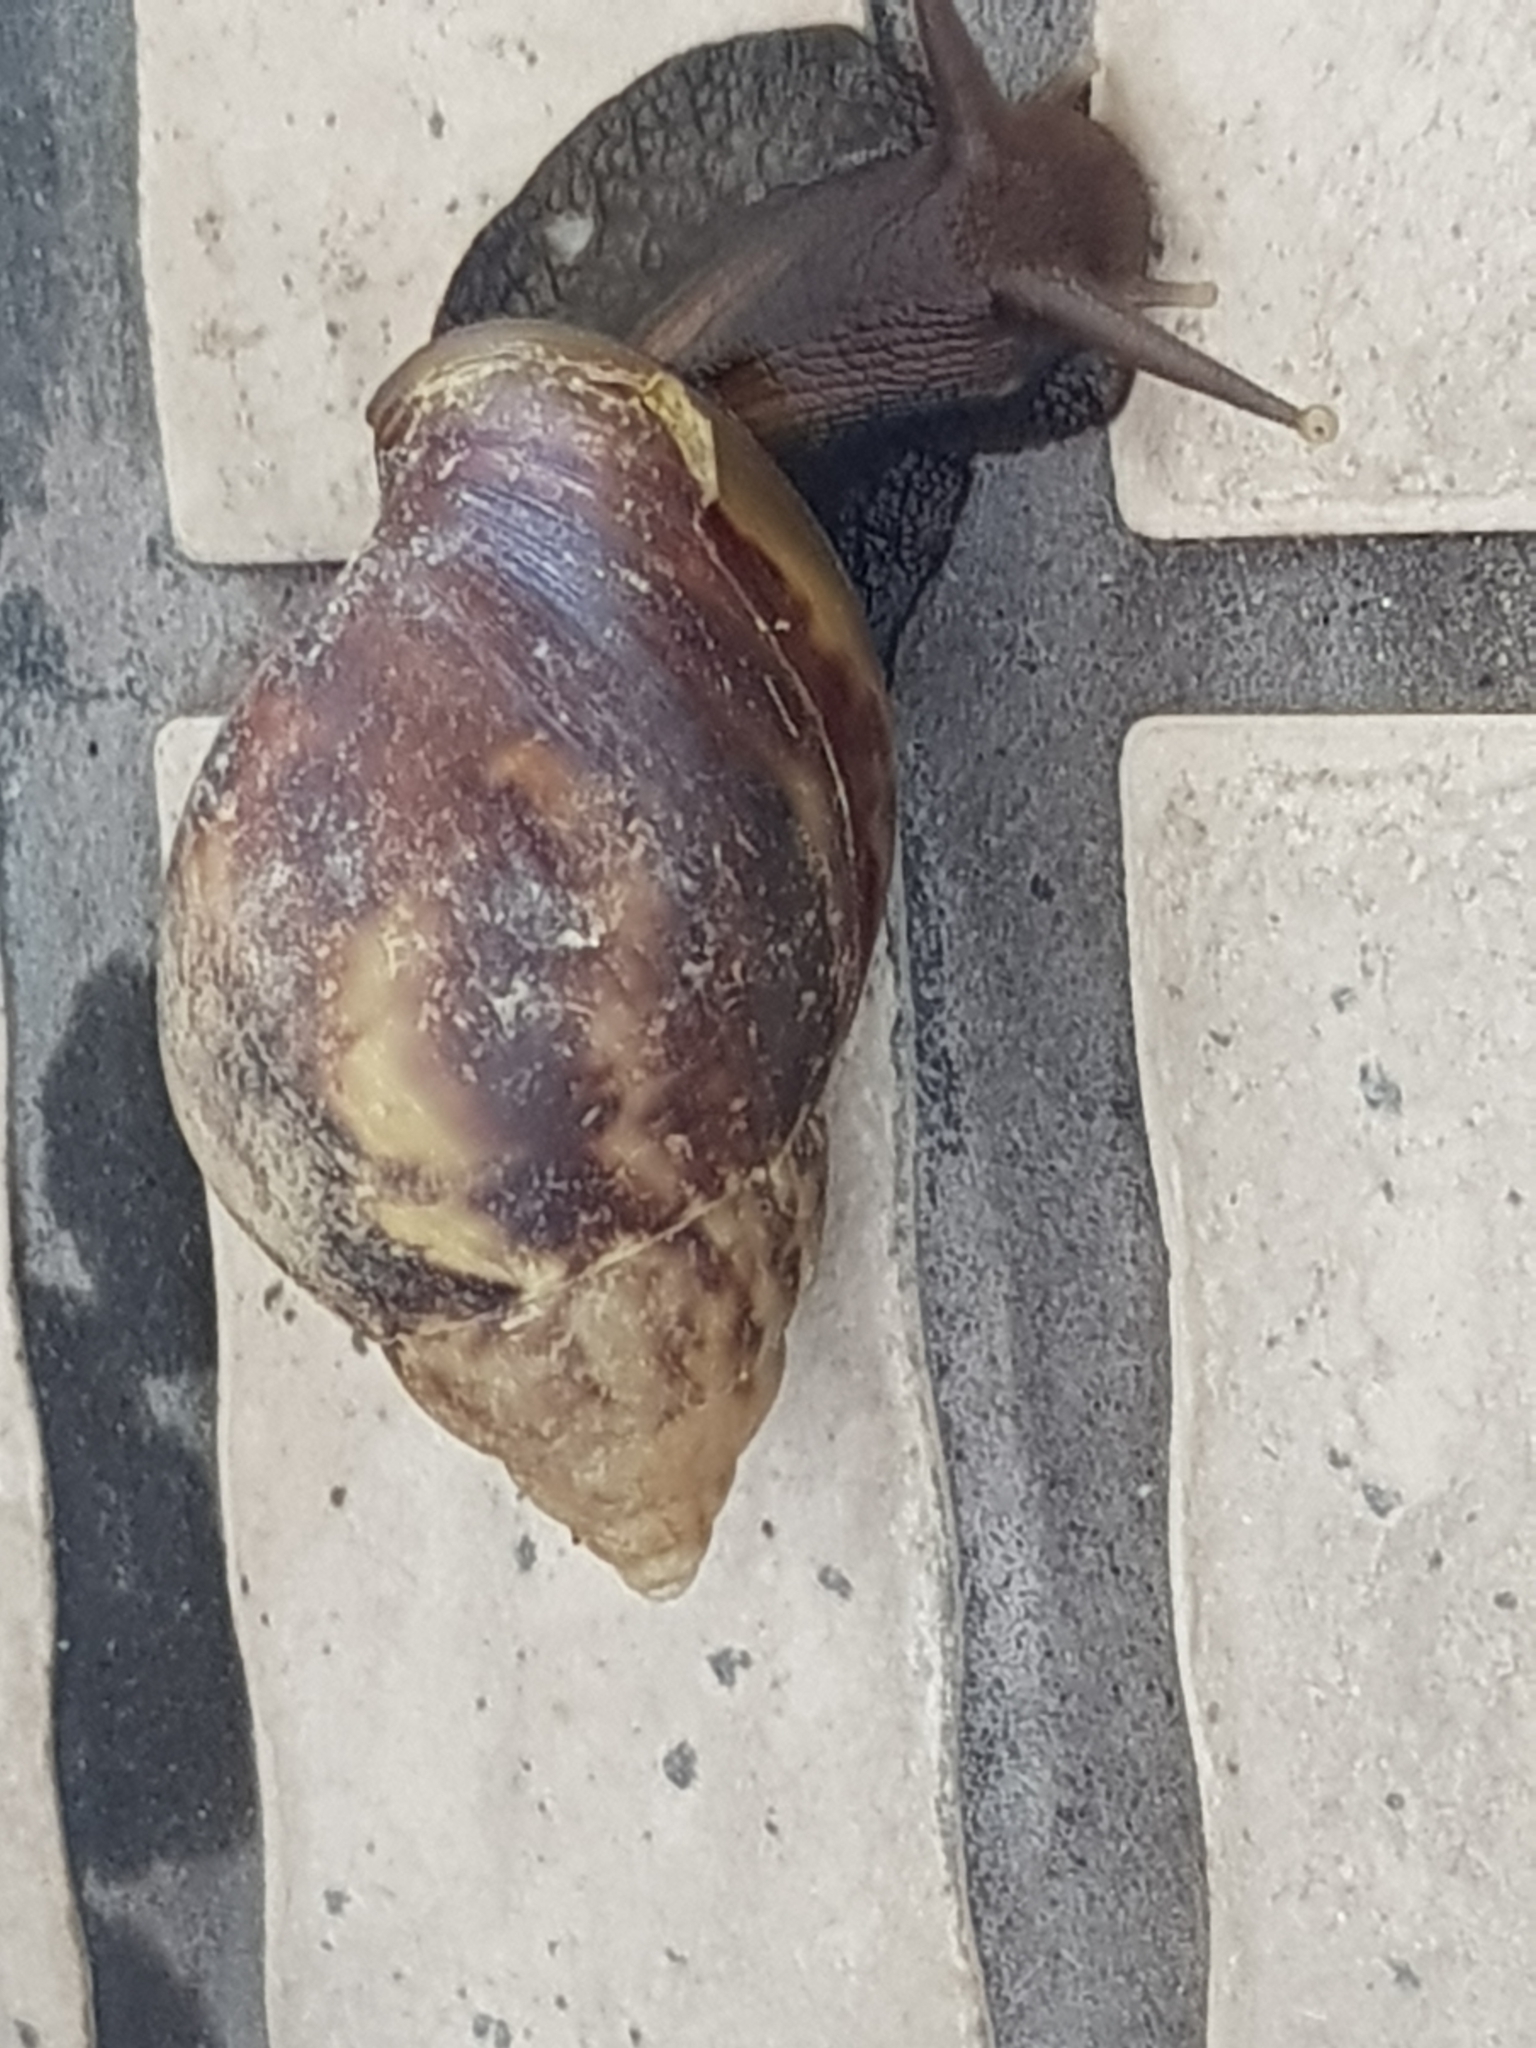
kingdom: Animalia
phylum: Mollusca
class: Gastropoda
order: Stylommatophora
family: Achatinidae
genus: Lissachatina
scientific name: Lissachatina fulica
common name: Giant african snail
